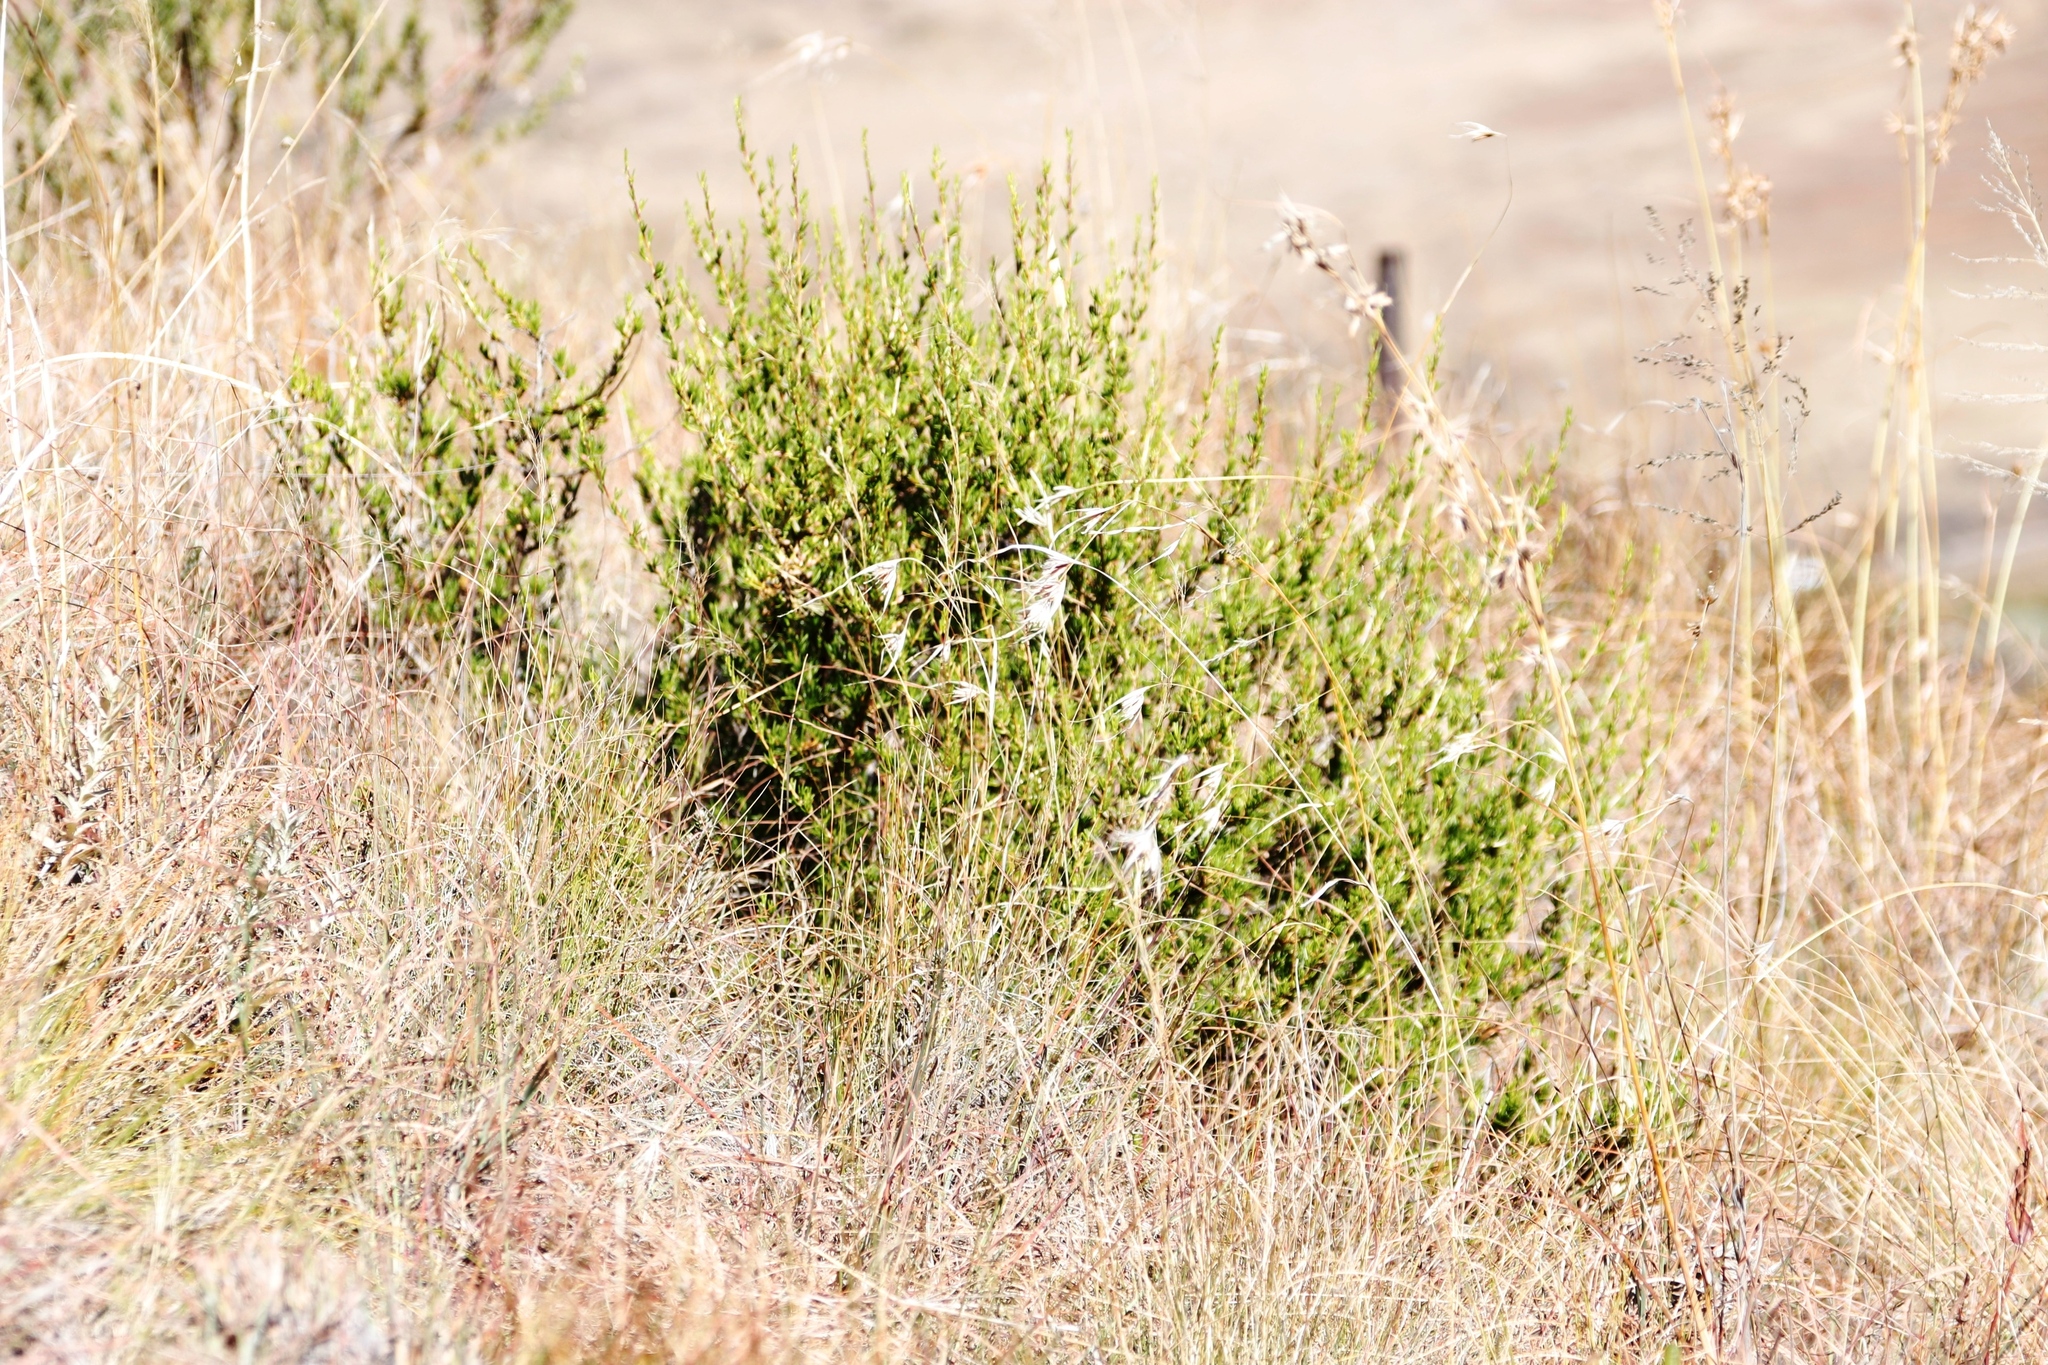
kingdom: Plantae
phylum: Tracheophyta
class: Magnoliopsida
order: Asterales
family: Asteraceae
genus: Felicia
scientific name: Felicia filifolia
